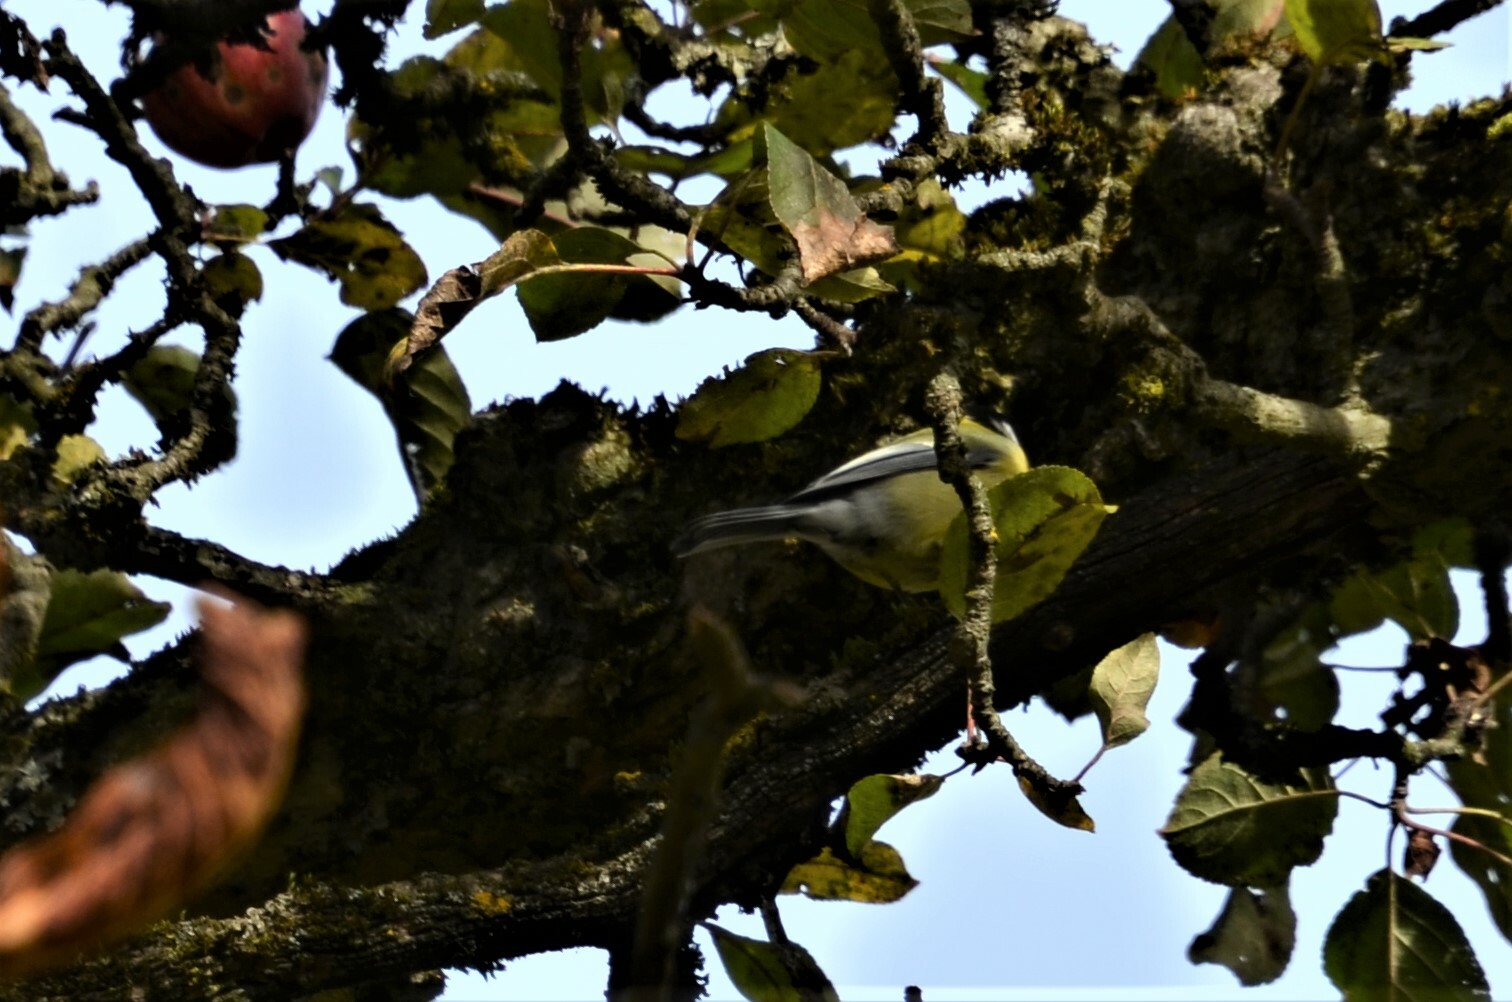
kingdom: Animalia
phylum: Chordata
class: Aves
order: Passeriformes
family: Paridae
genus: Parus
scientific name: Parus major
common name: Great tit
